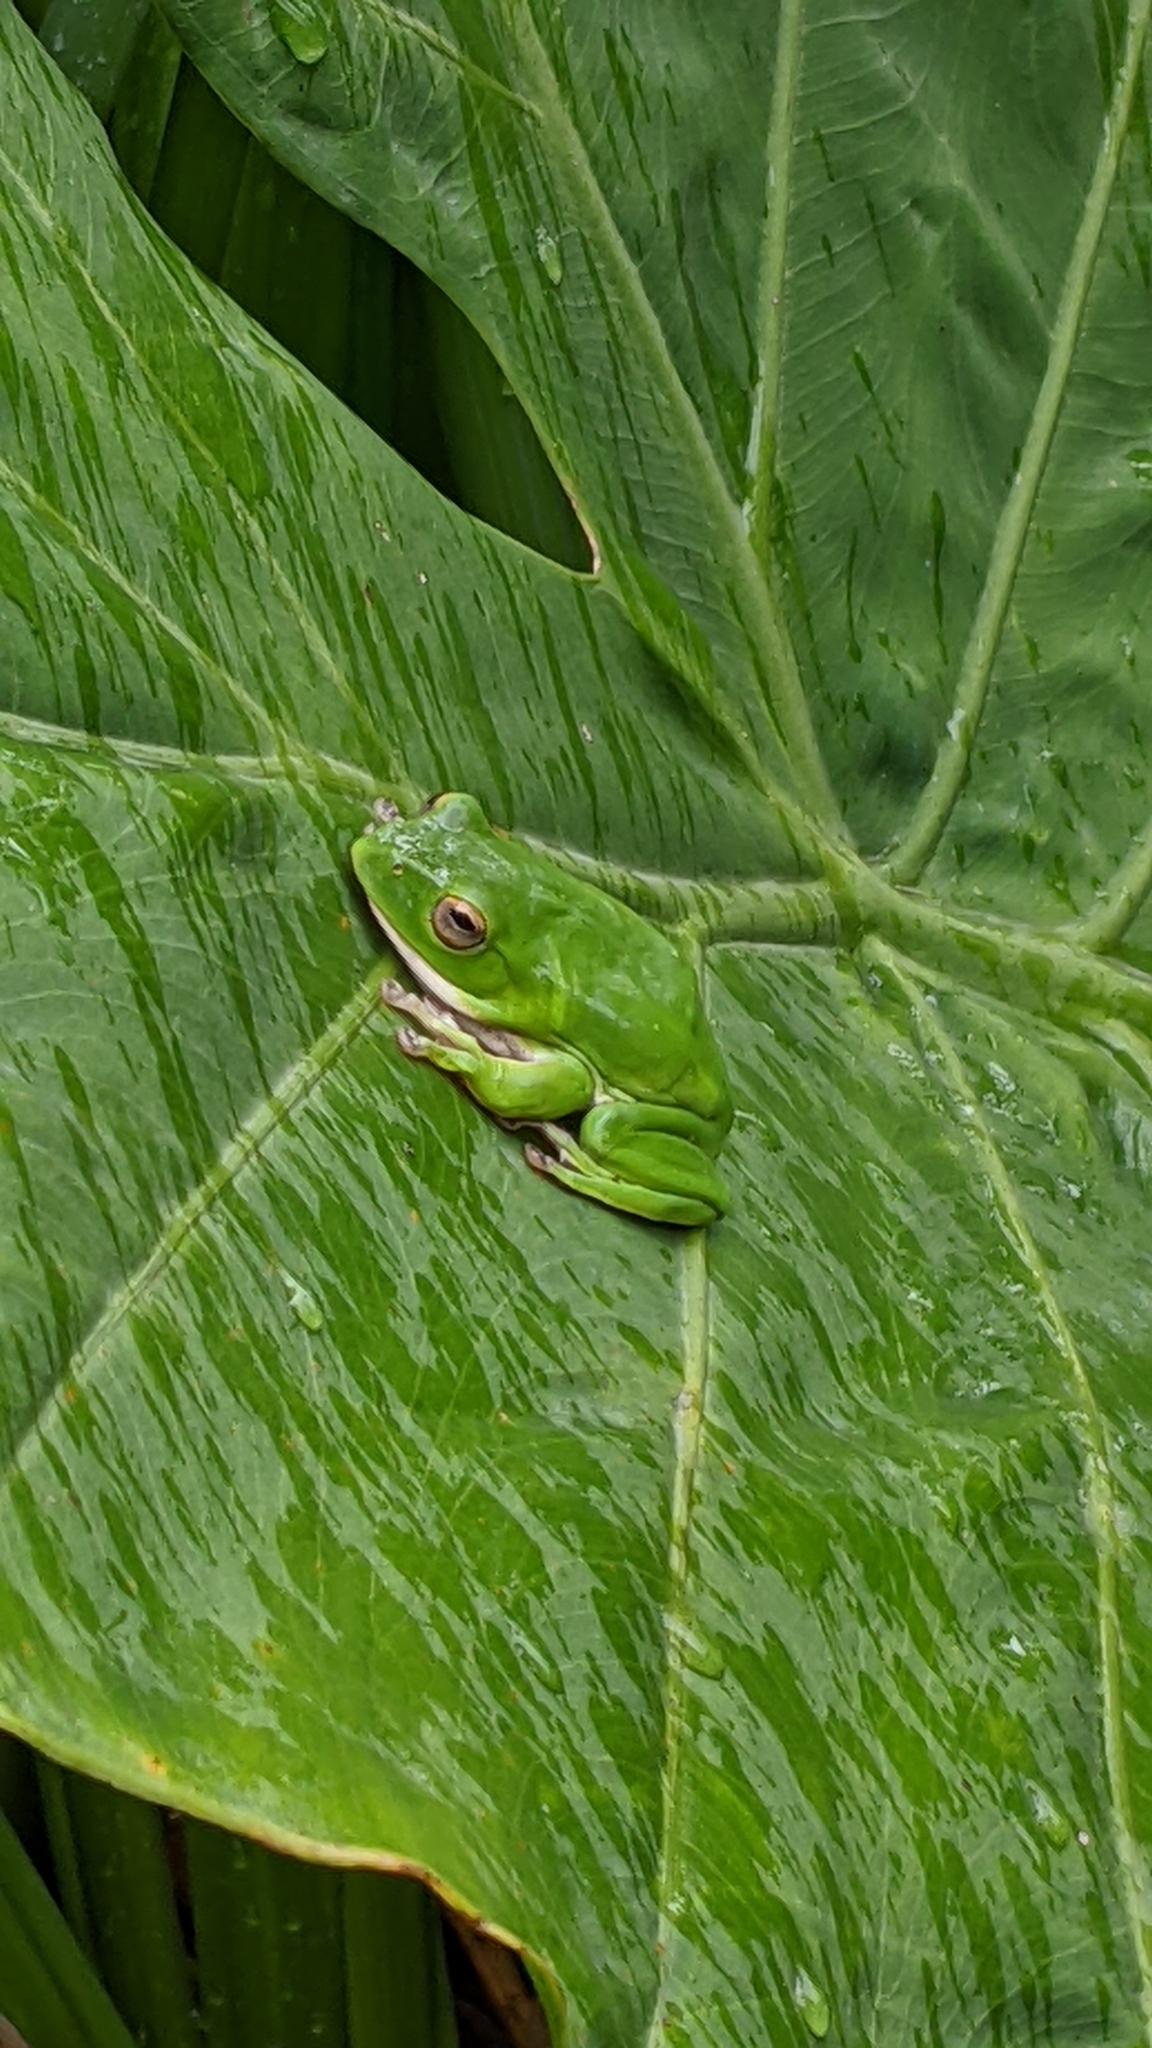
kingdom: Animalia
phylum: Chordata
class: Amphibia
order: Anura
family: Rhacophoridae
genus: Zhangixalus
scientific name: Zhangixalus moltrechti
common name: Moltrecht's treefrog
